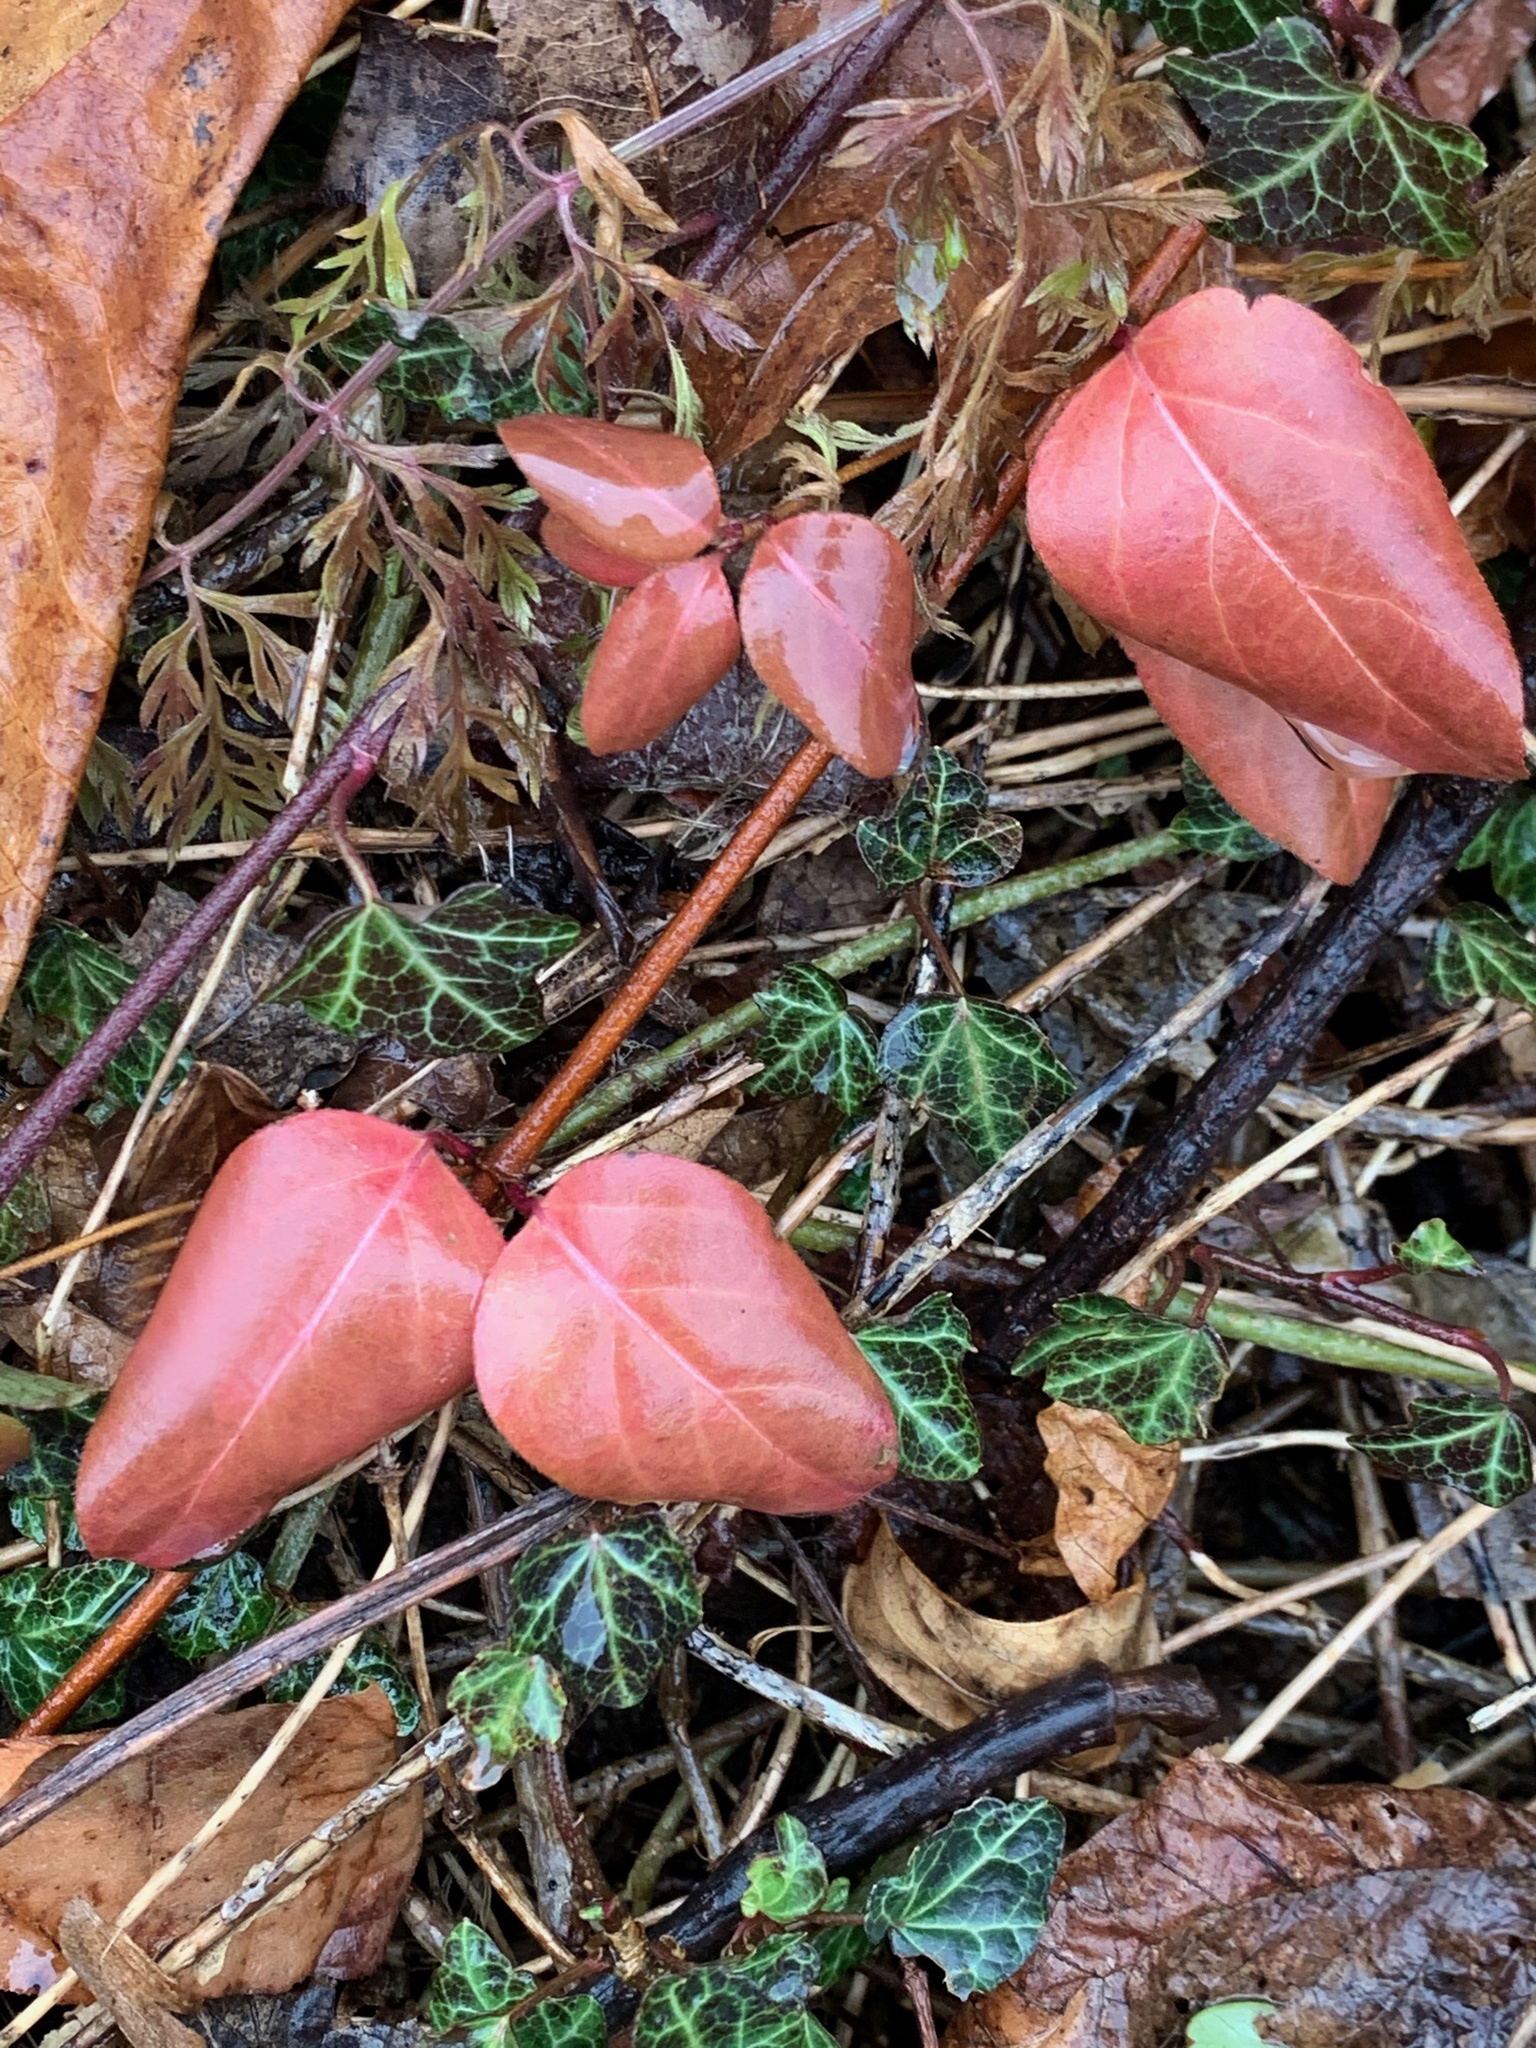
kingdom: Plantae
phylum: Tracheophyta
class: Magnoliopsida
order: Dipsacales
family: Caprifoliaceae
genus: Lonicera
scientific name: Lonicera japonica
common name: Japanese honeysuckle
